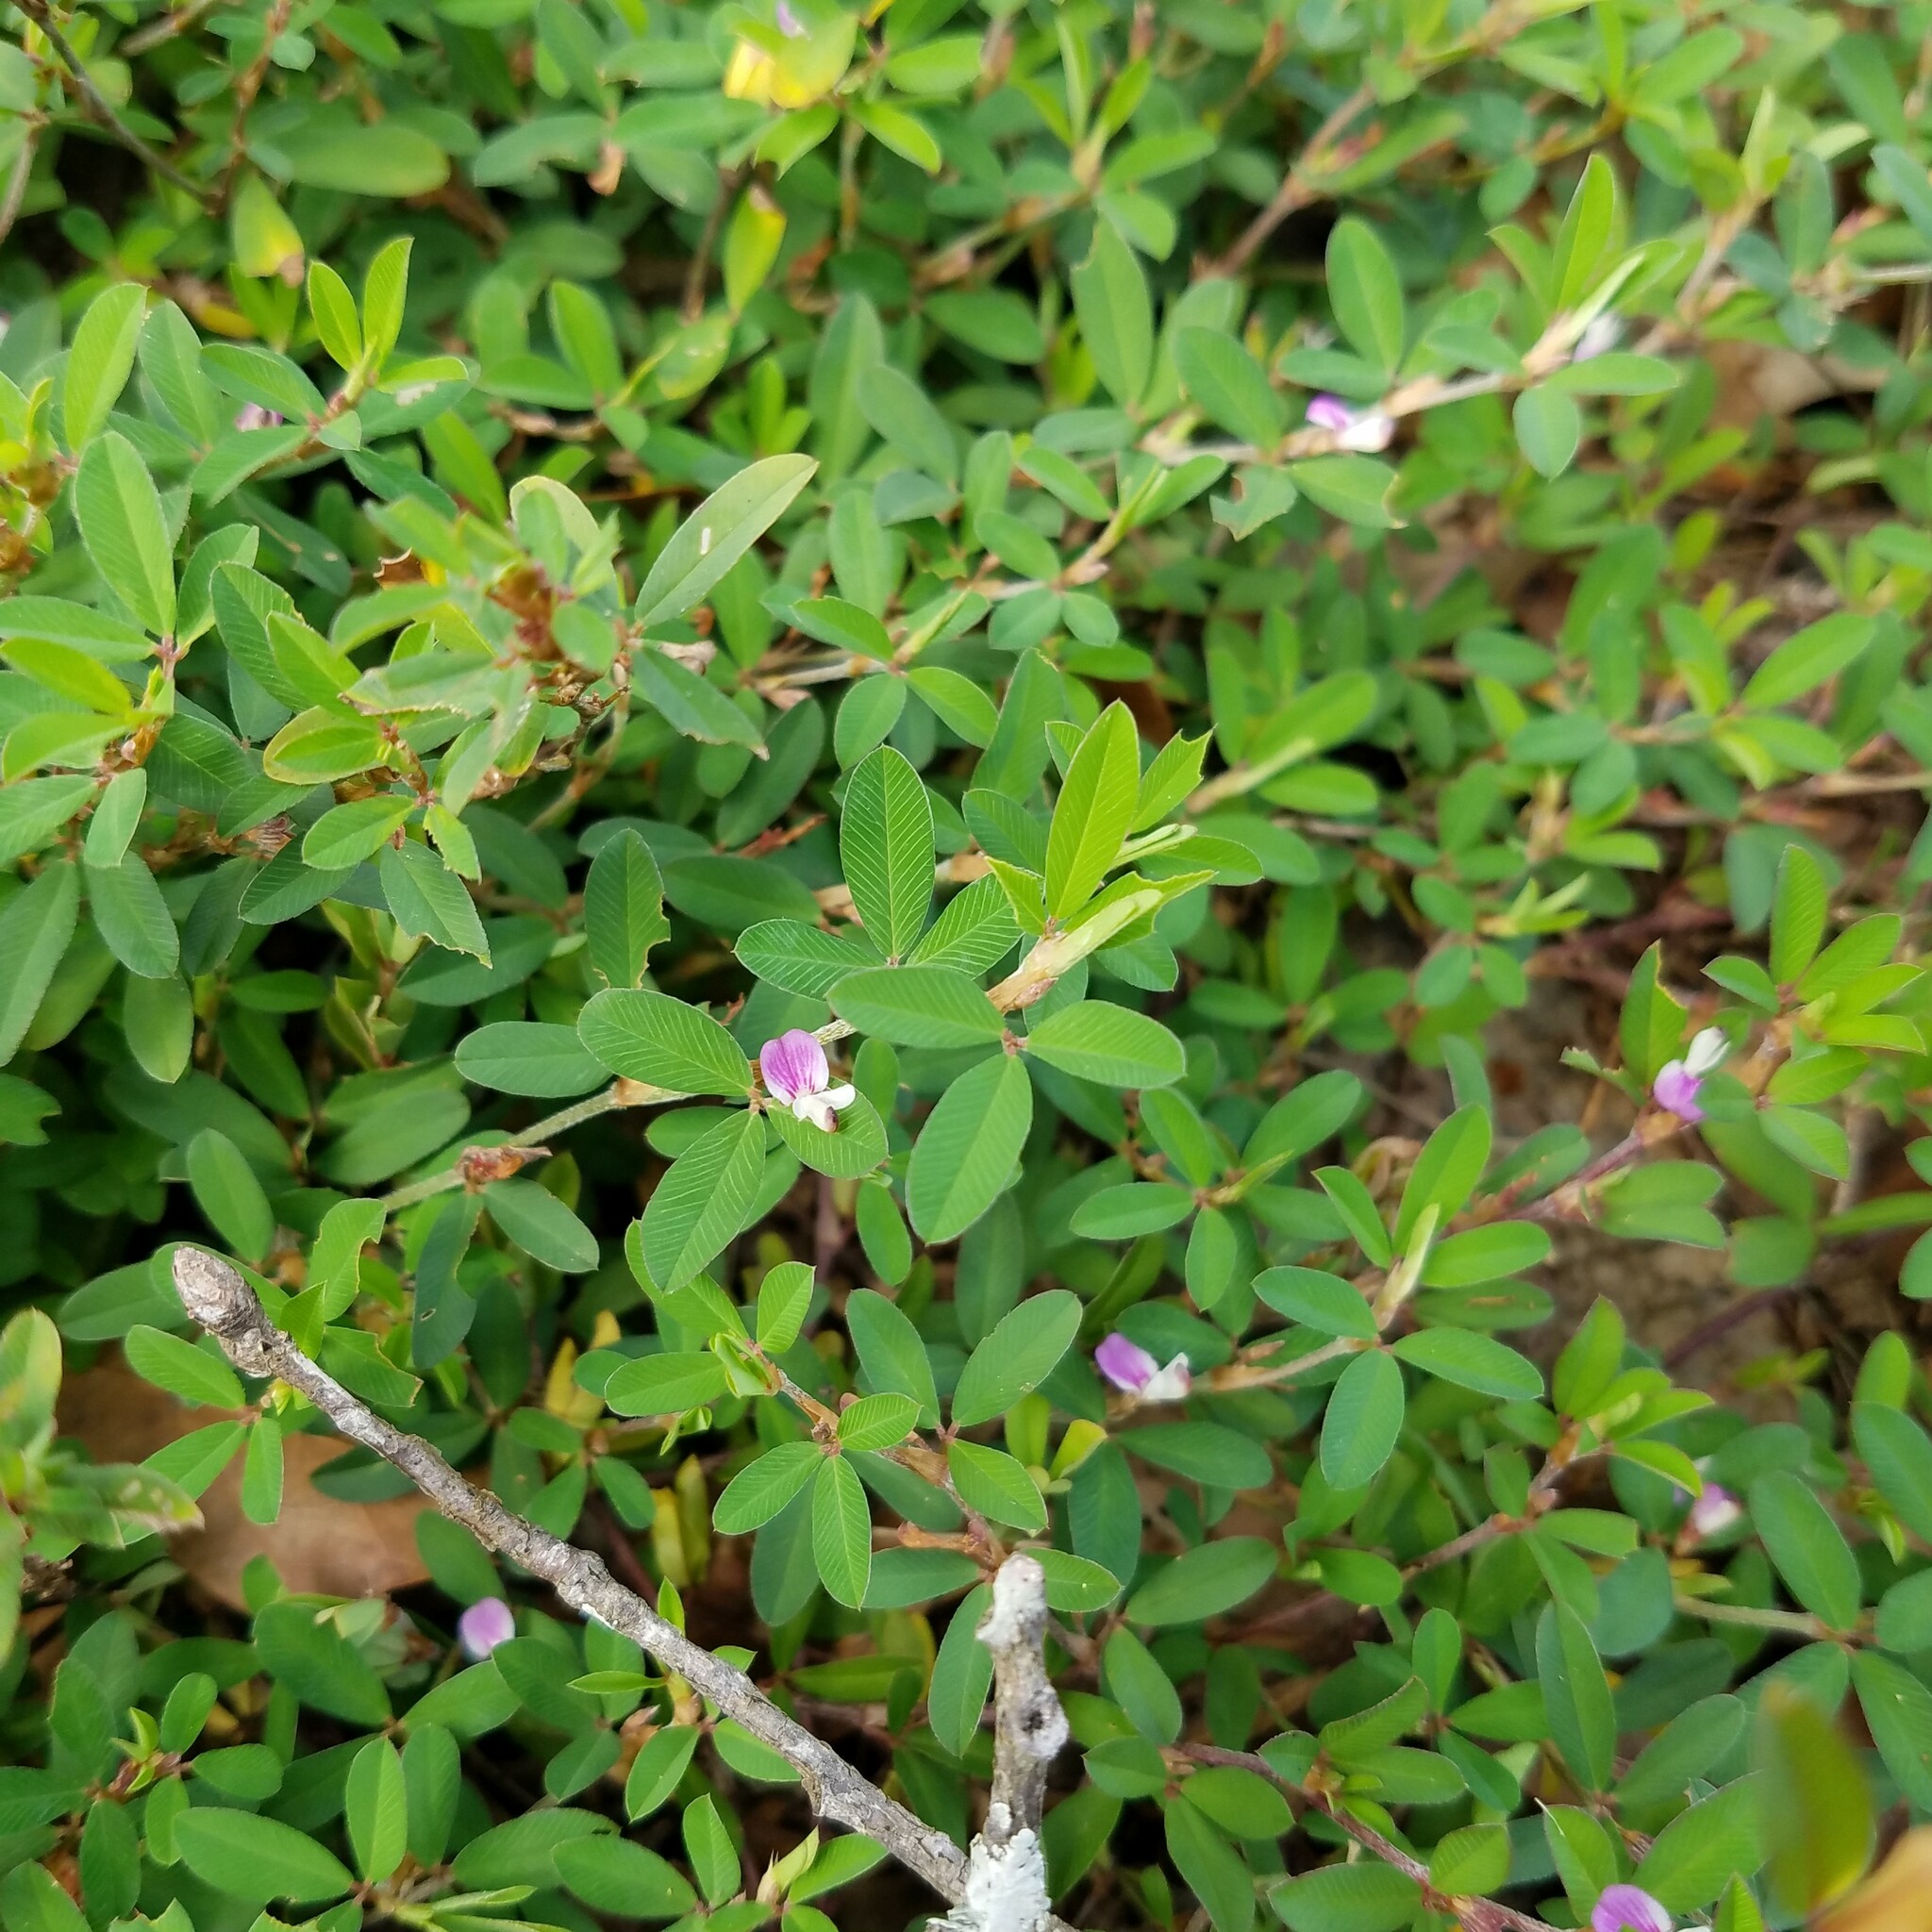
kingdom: Plantae
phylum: Tracheophyta
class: Magnoliopsida
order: Fabales
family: Fabaceae
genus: Kummerowia
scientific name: Kummerowia striata
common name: Japanese clover
